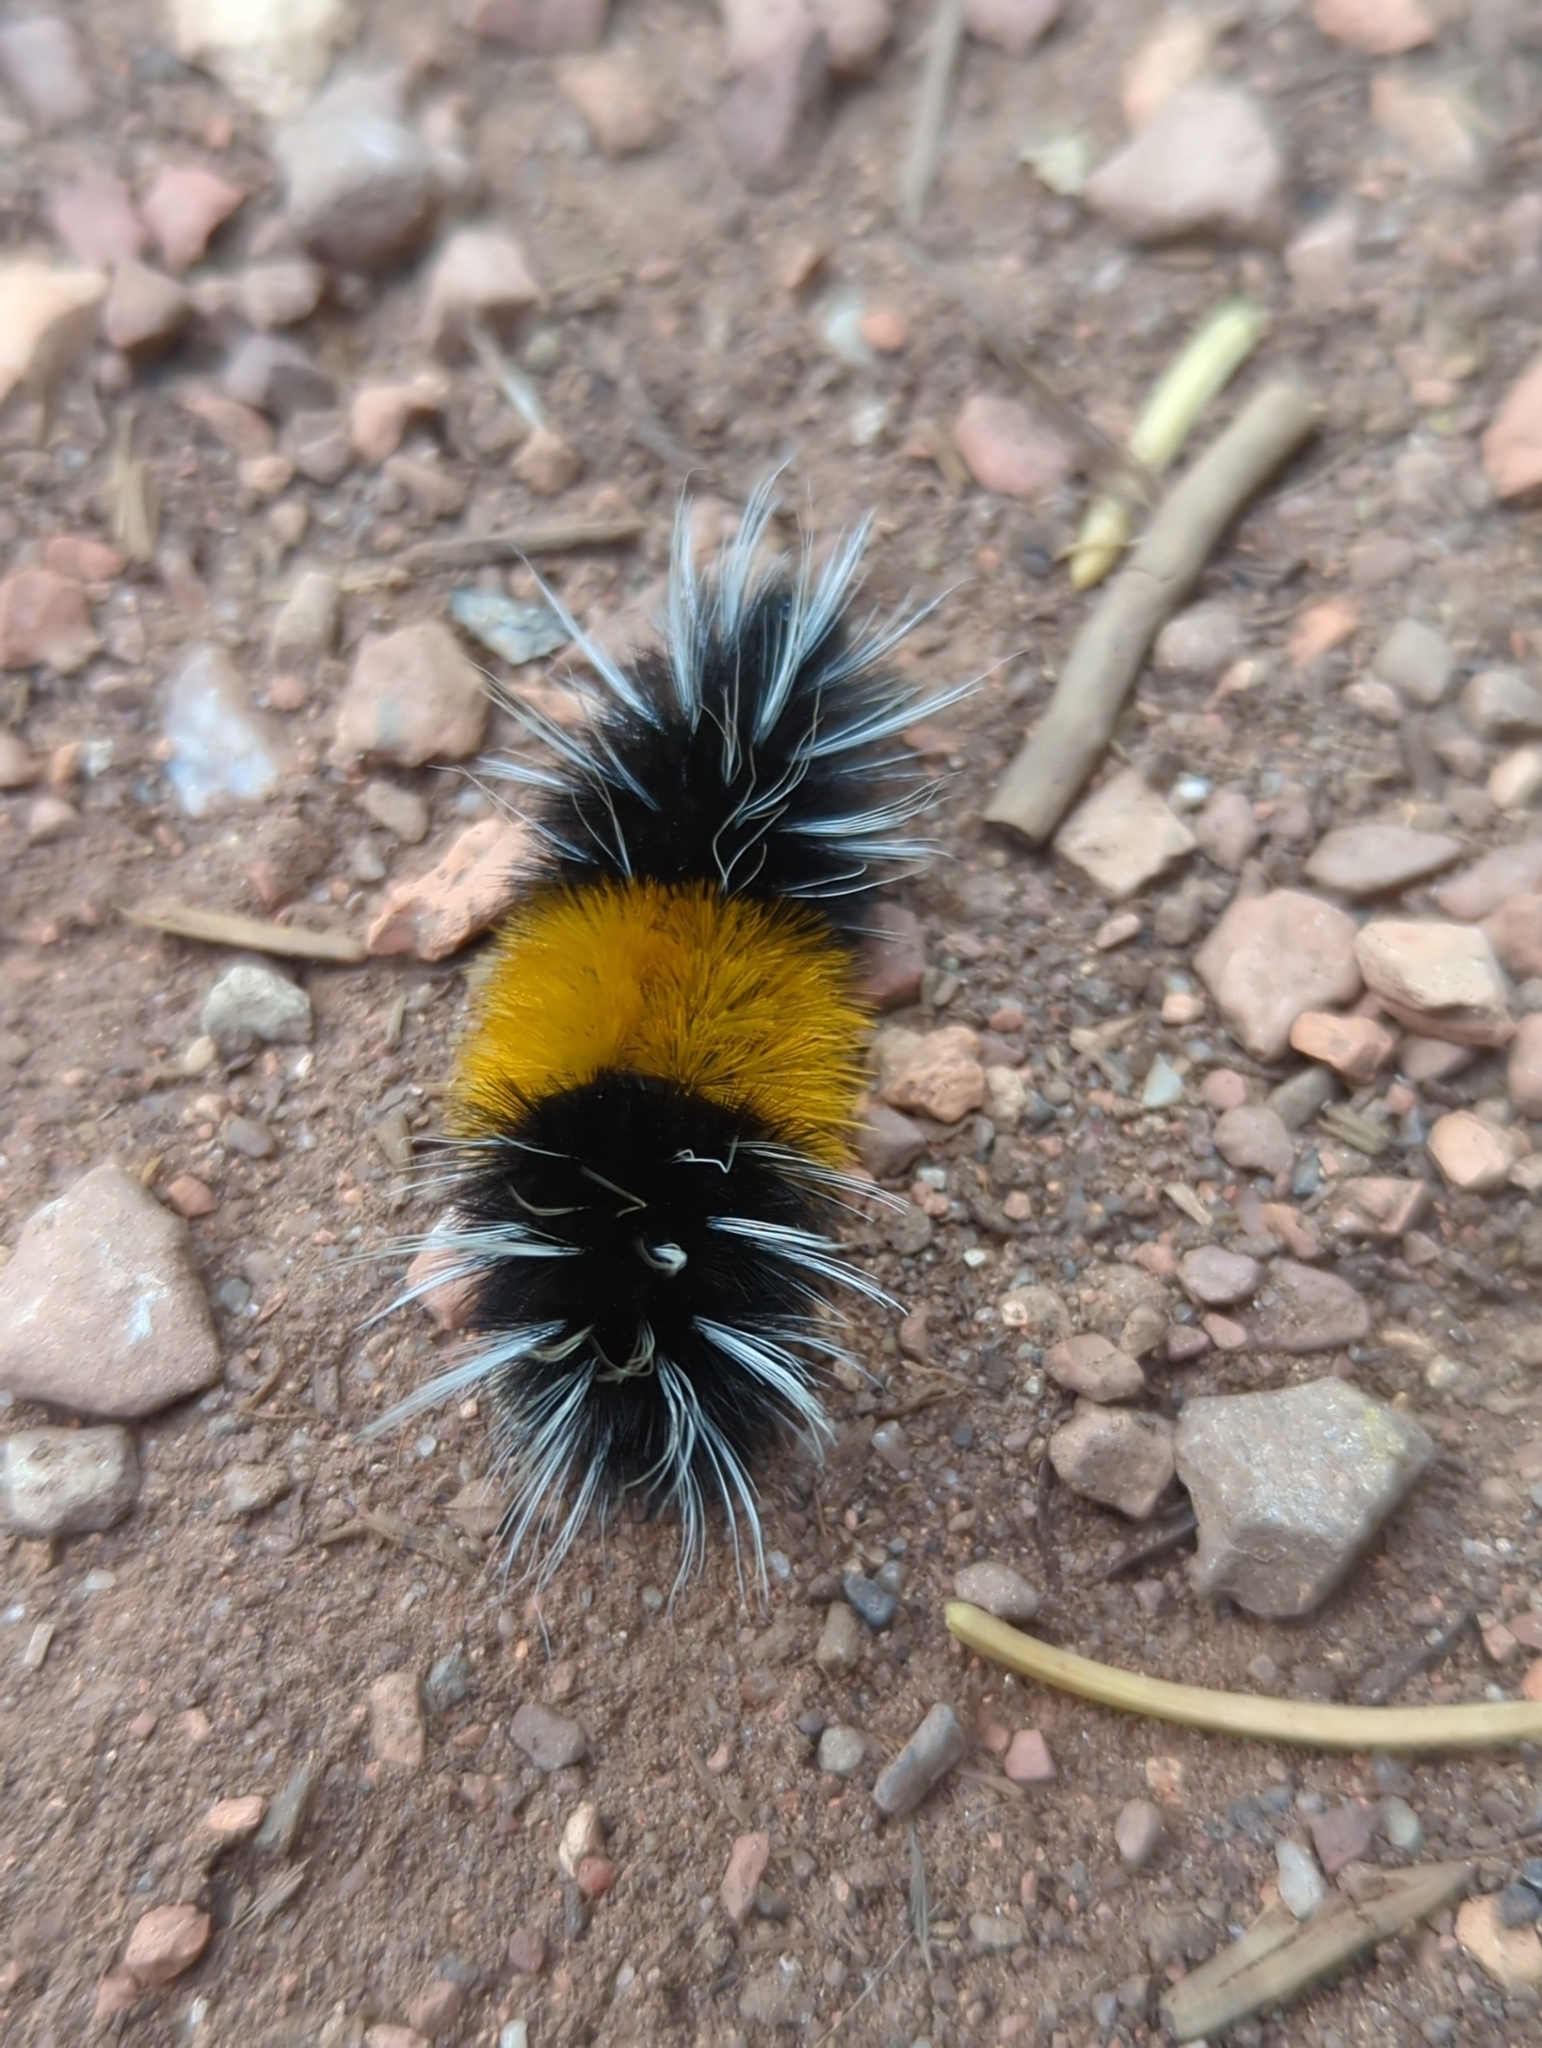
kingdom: Animalia
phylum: Arthropoda
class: Insecta
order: Lepidoptera
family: Erebidae
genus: Lophocampa
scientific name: Lophocampa maculata
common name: Spotted tussock moth
